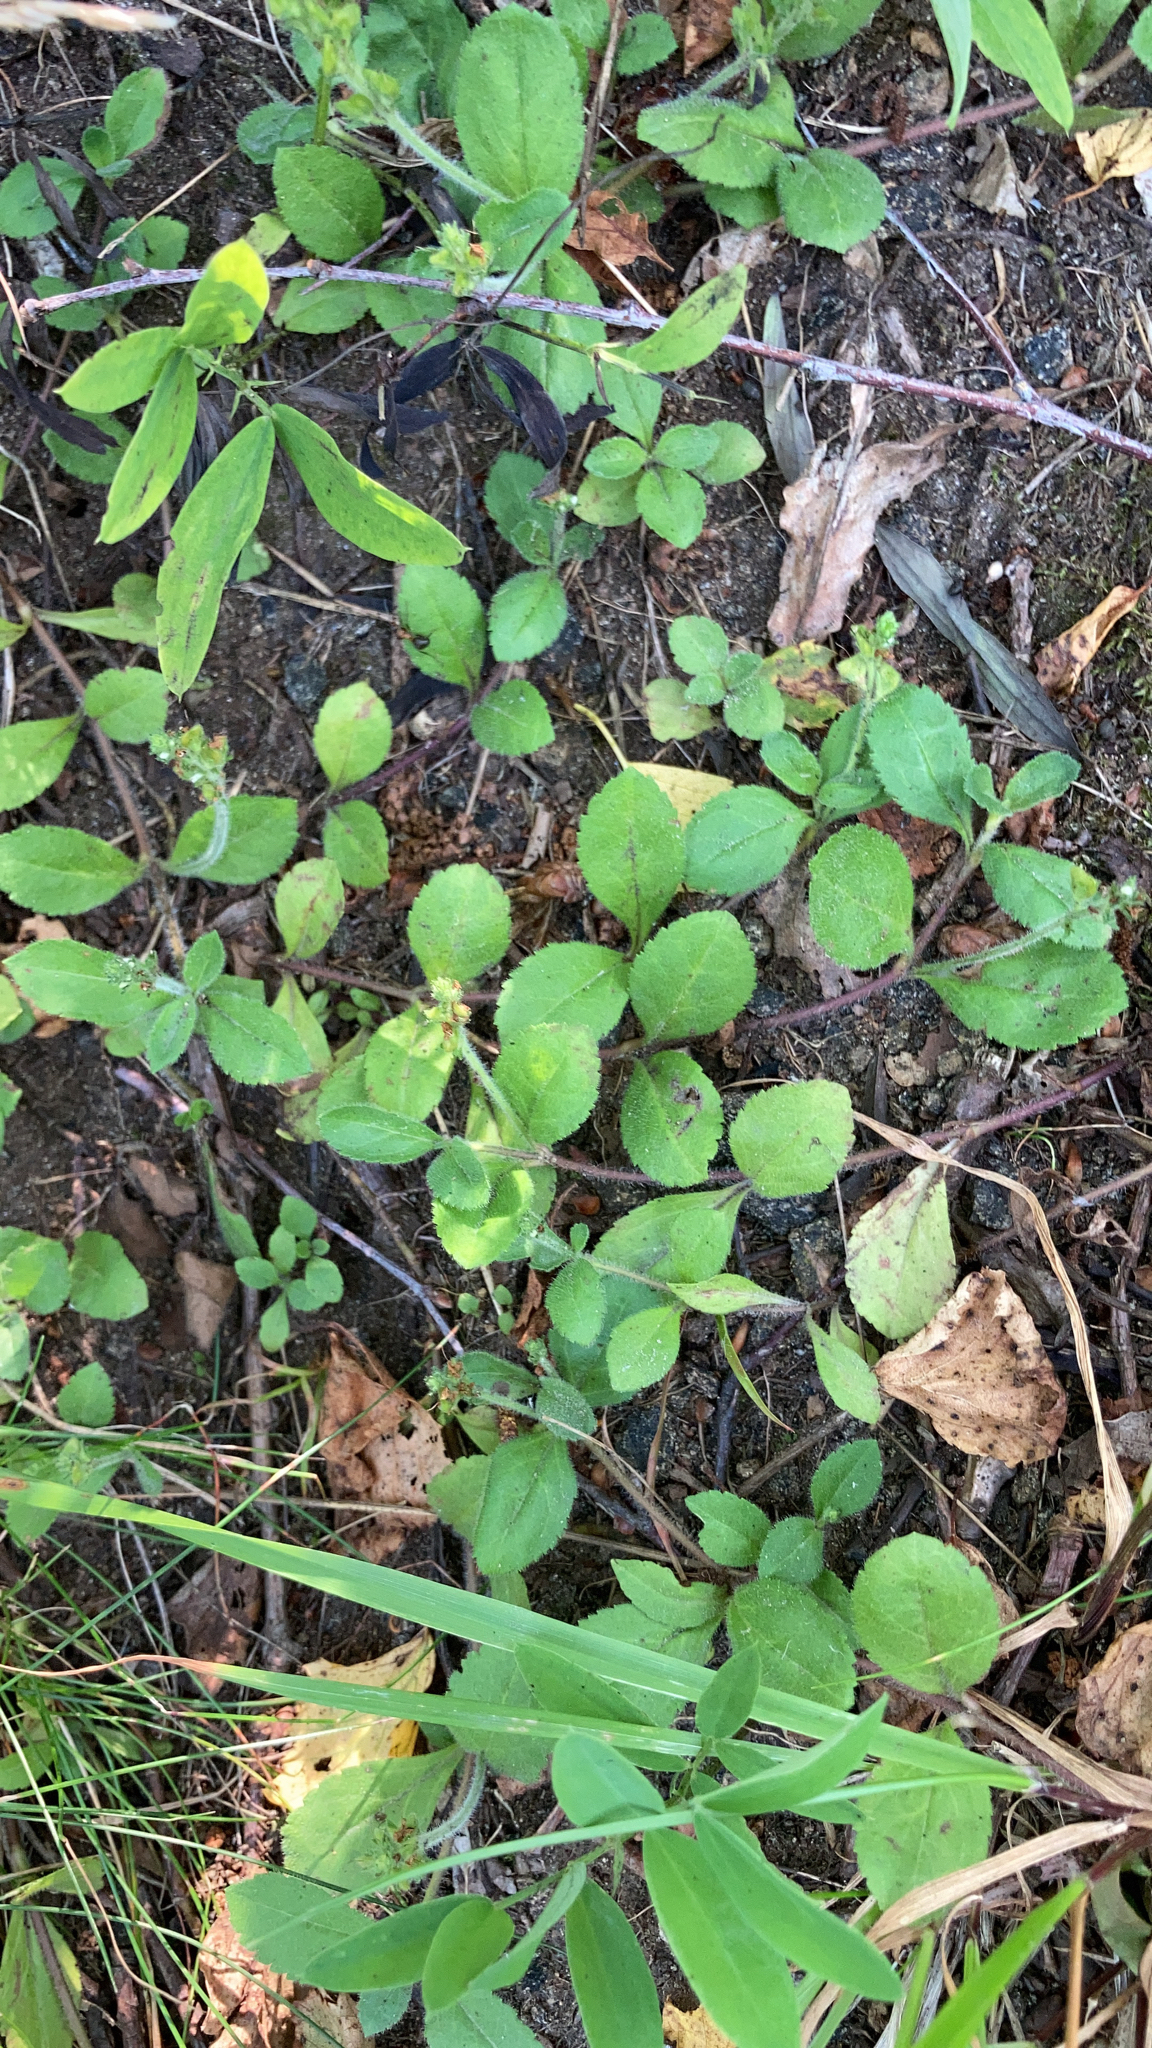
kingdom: Plantae
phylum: Tracheophyta
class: Magnoliopsida
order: Lamiales
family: Plantaginaceae
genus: Veronica
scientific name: Veronica officinalis
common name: Common speedwell
